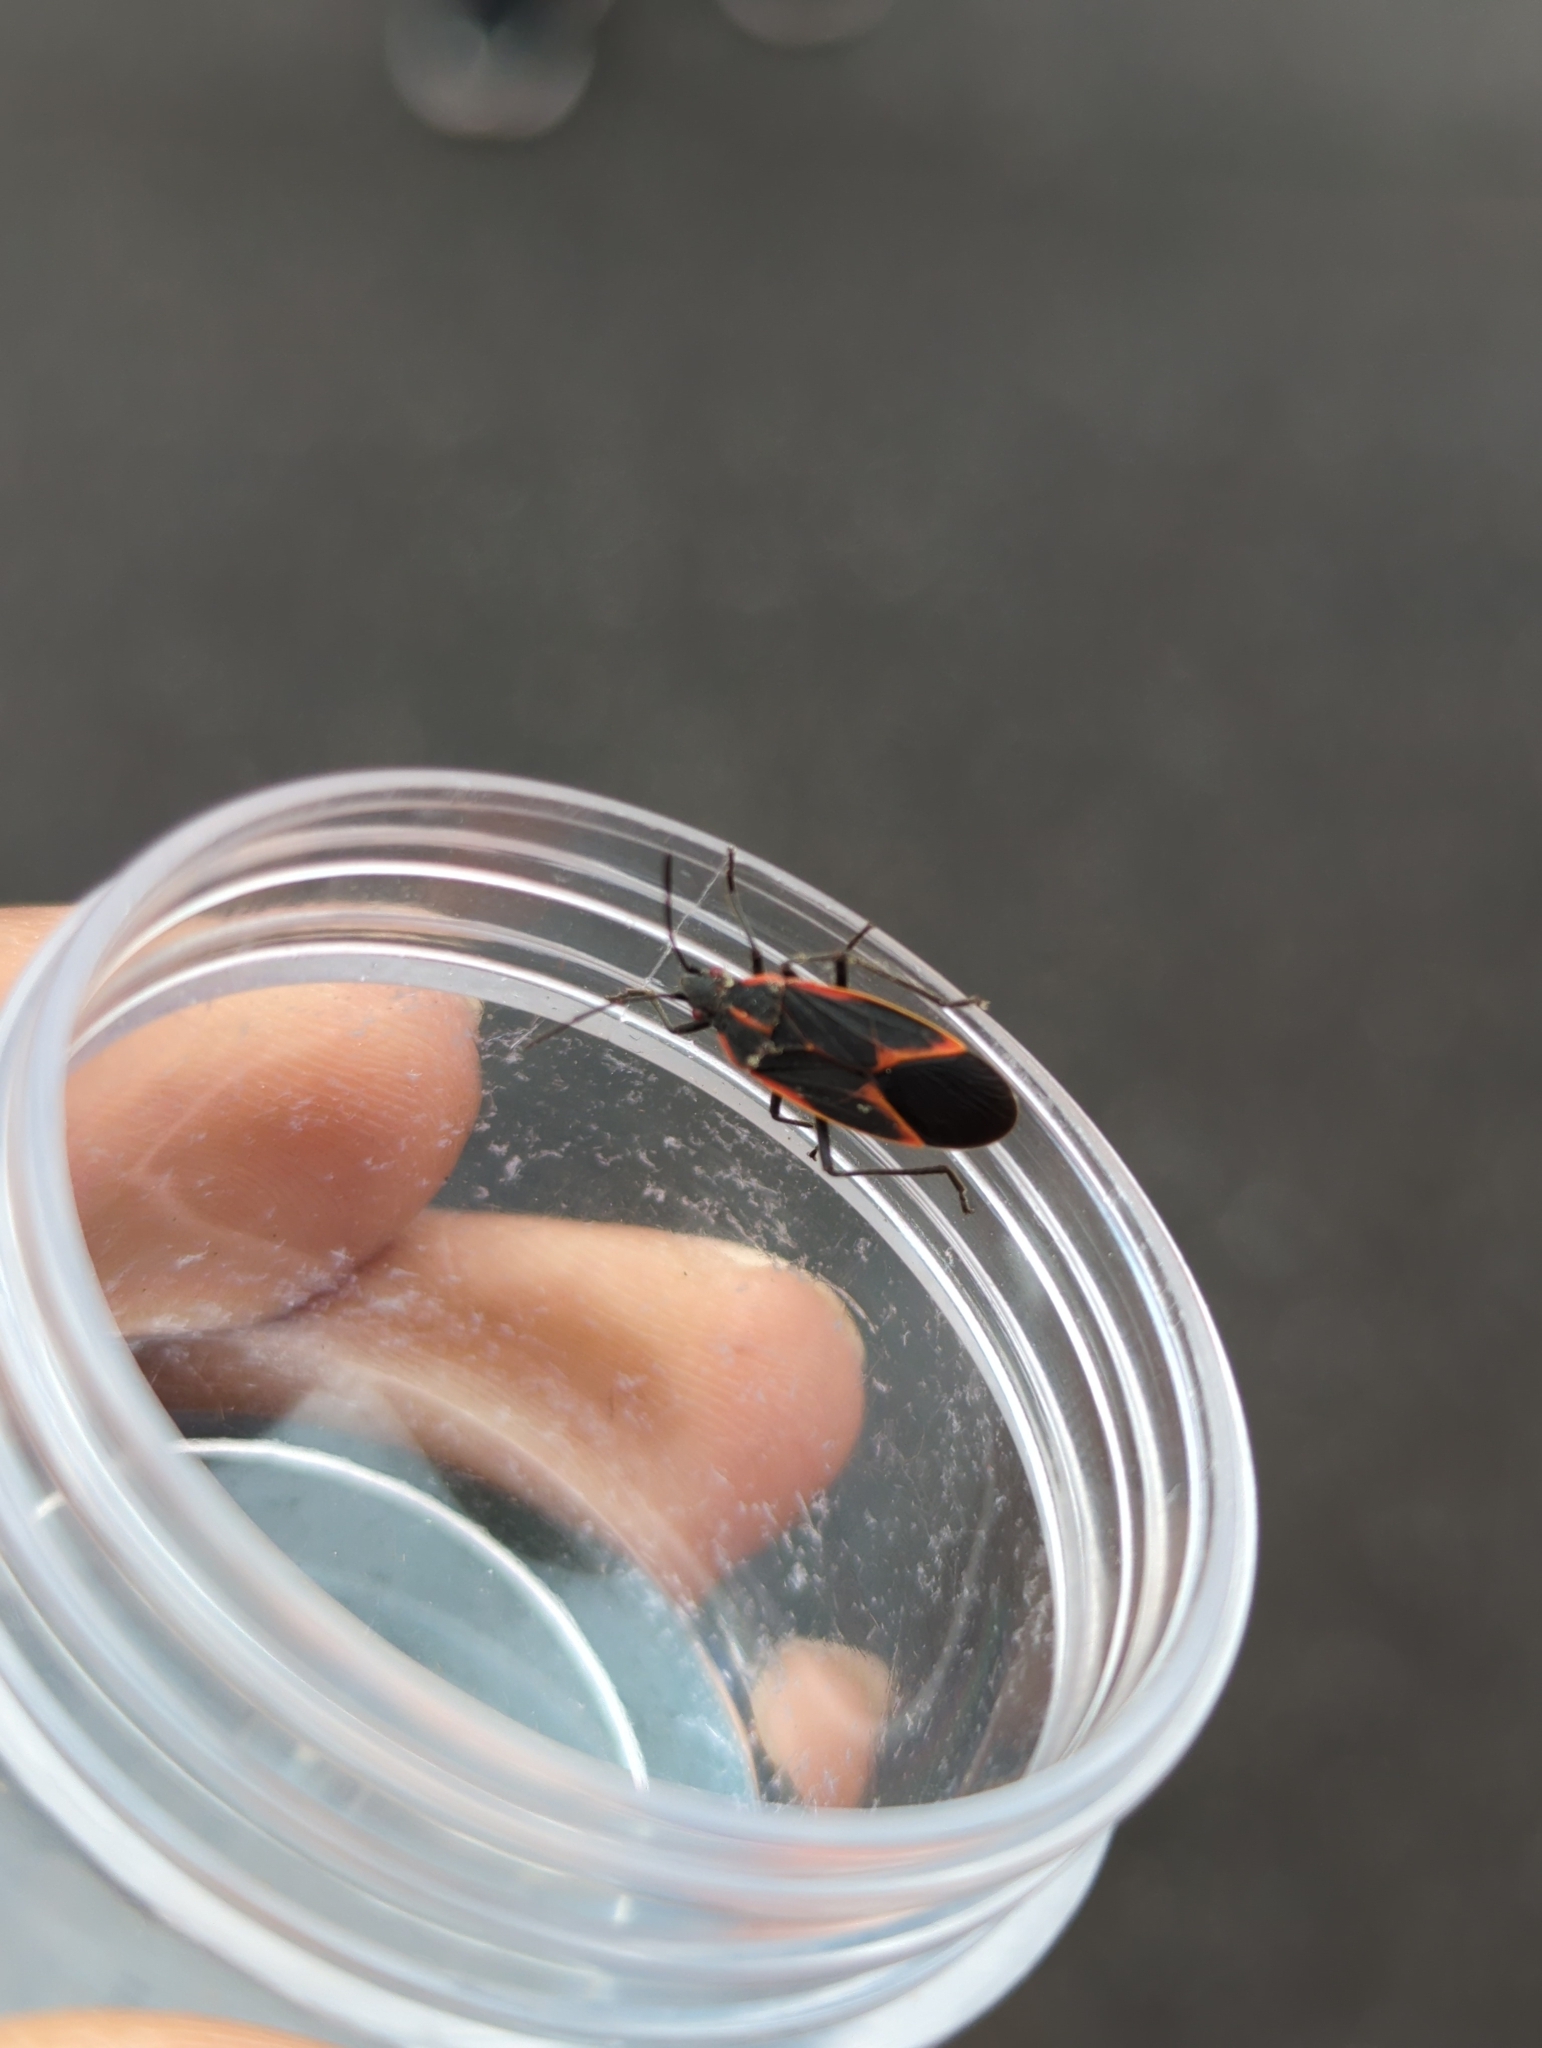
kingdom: Animalia
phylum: Arthropoda
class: Insecta
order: Hemiptera
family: Rhopalidae
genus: Boisea
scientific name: Boisea trivittata
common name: Boxelder bug
